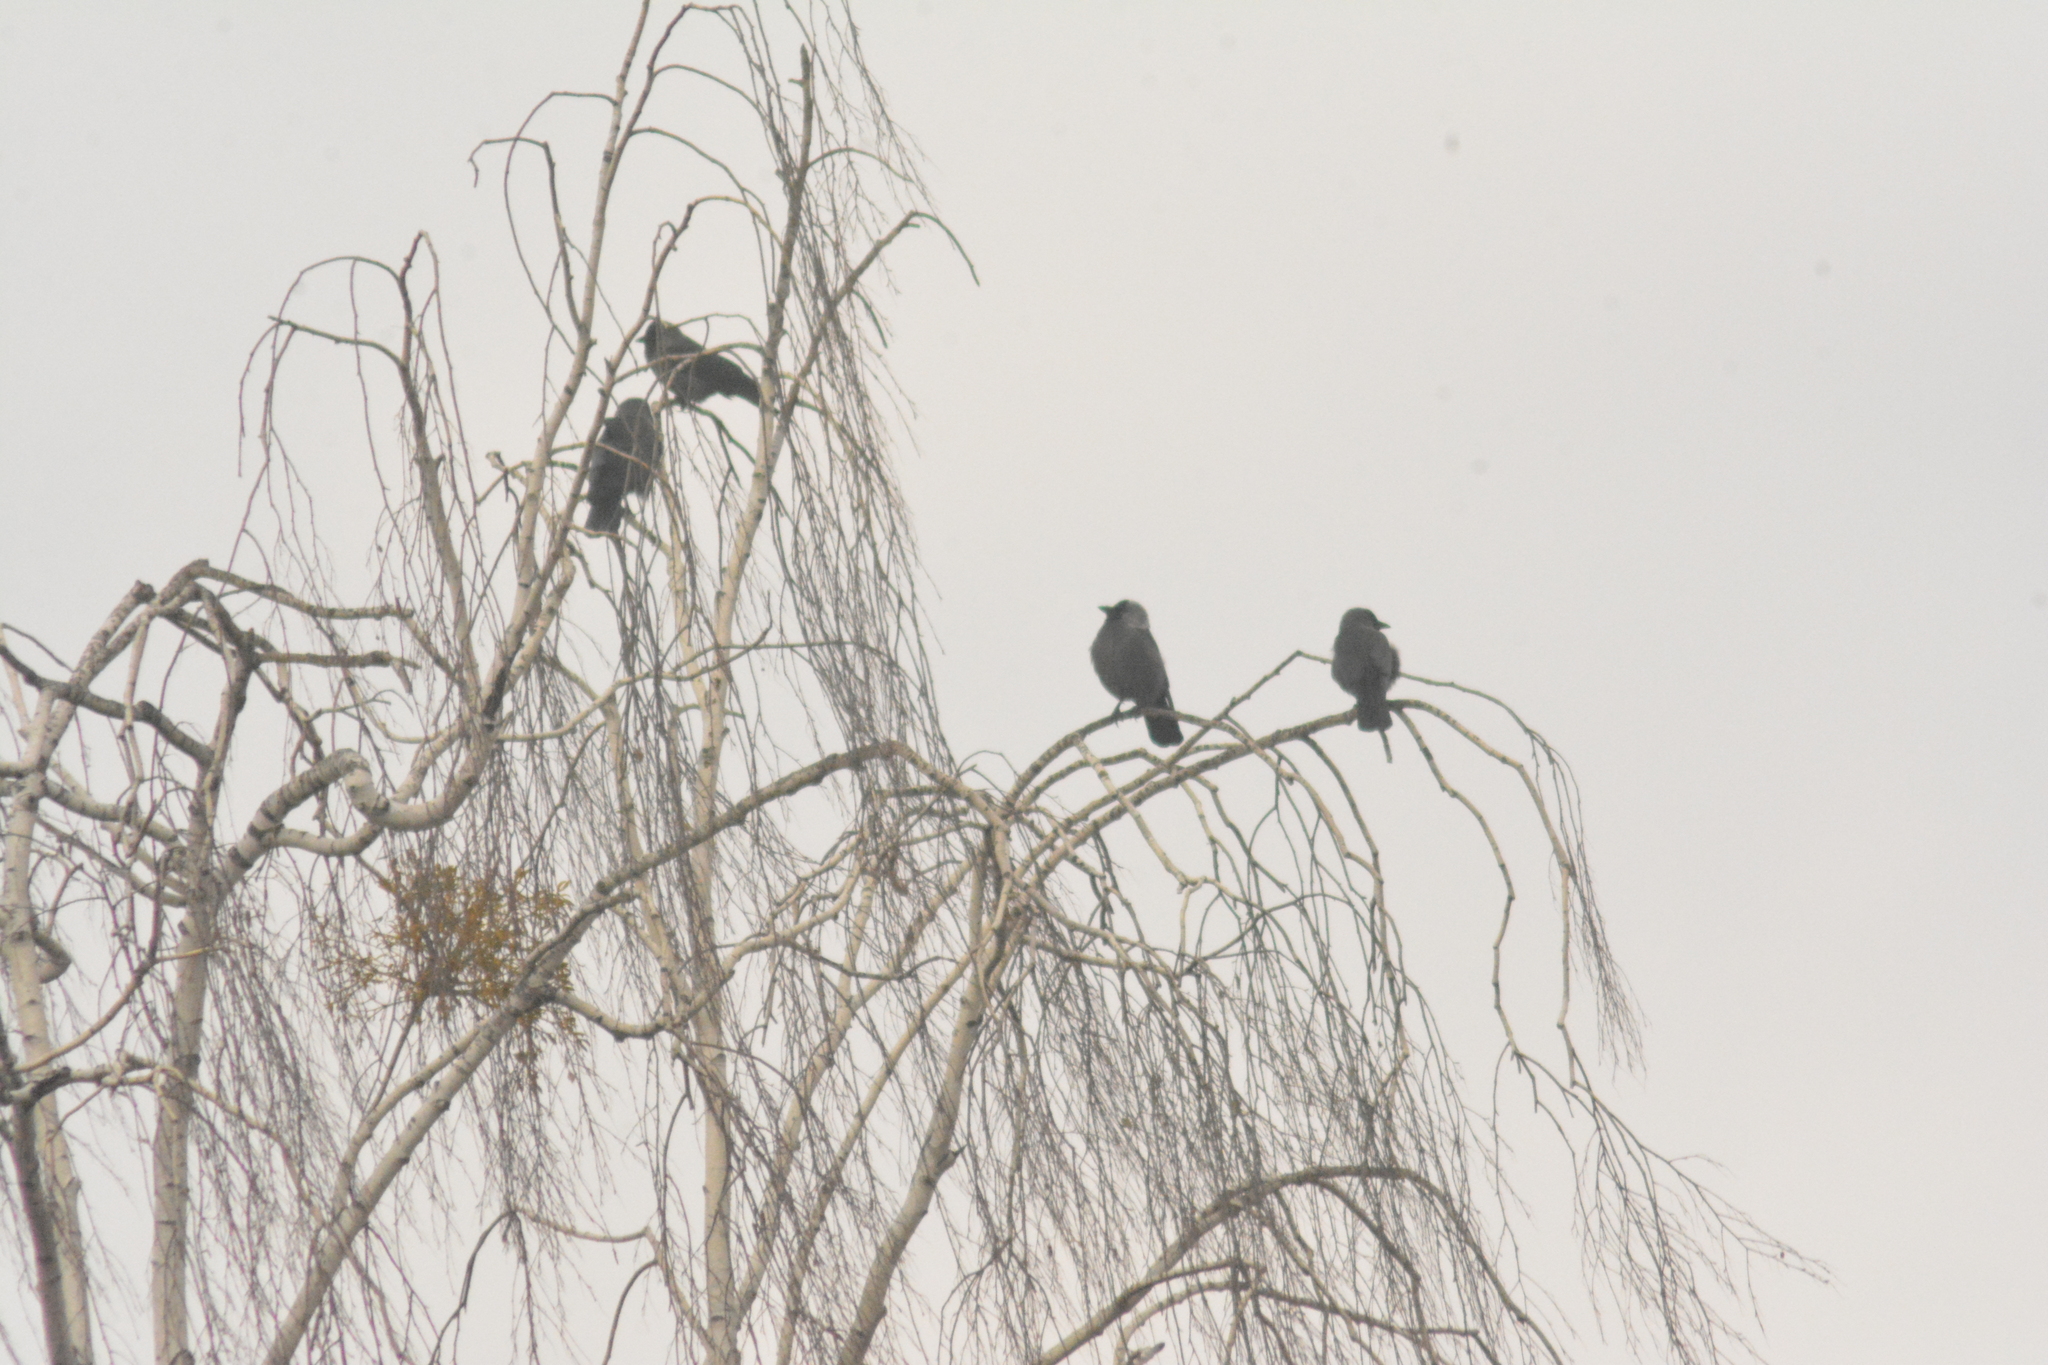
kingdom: Animalia
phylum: Chordata
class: Aves
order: Passeriformes
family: Corvidae
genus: Coloeus
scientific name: Coloeus monedula
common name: Western jackdaw
